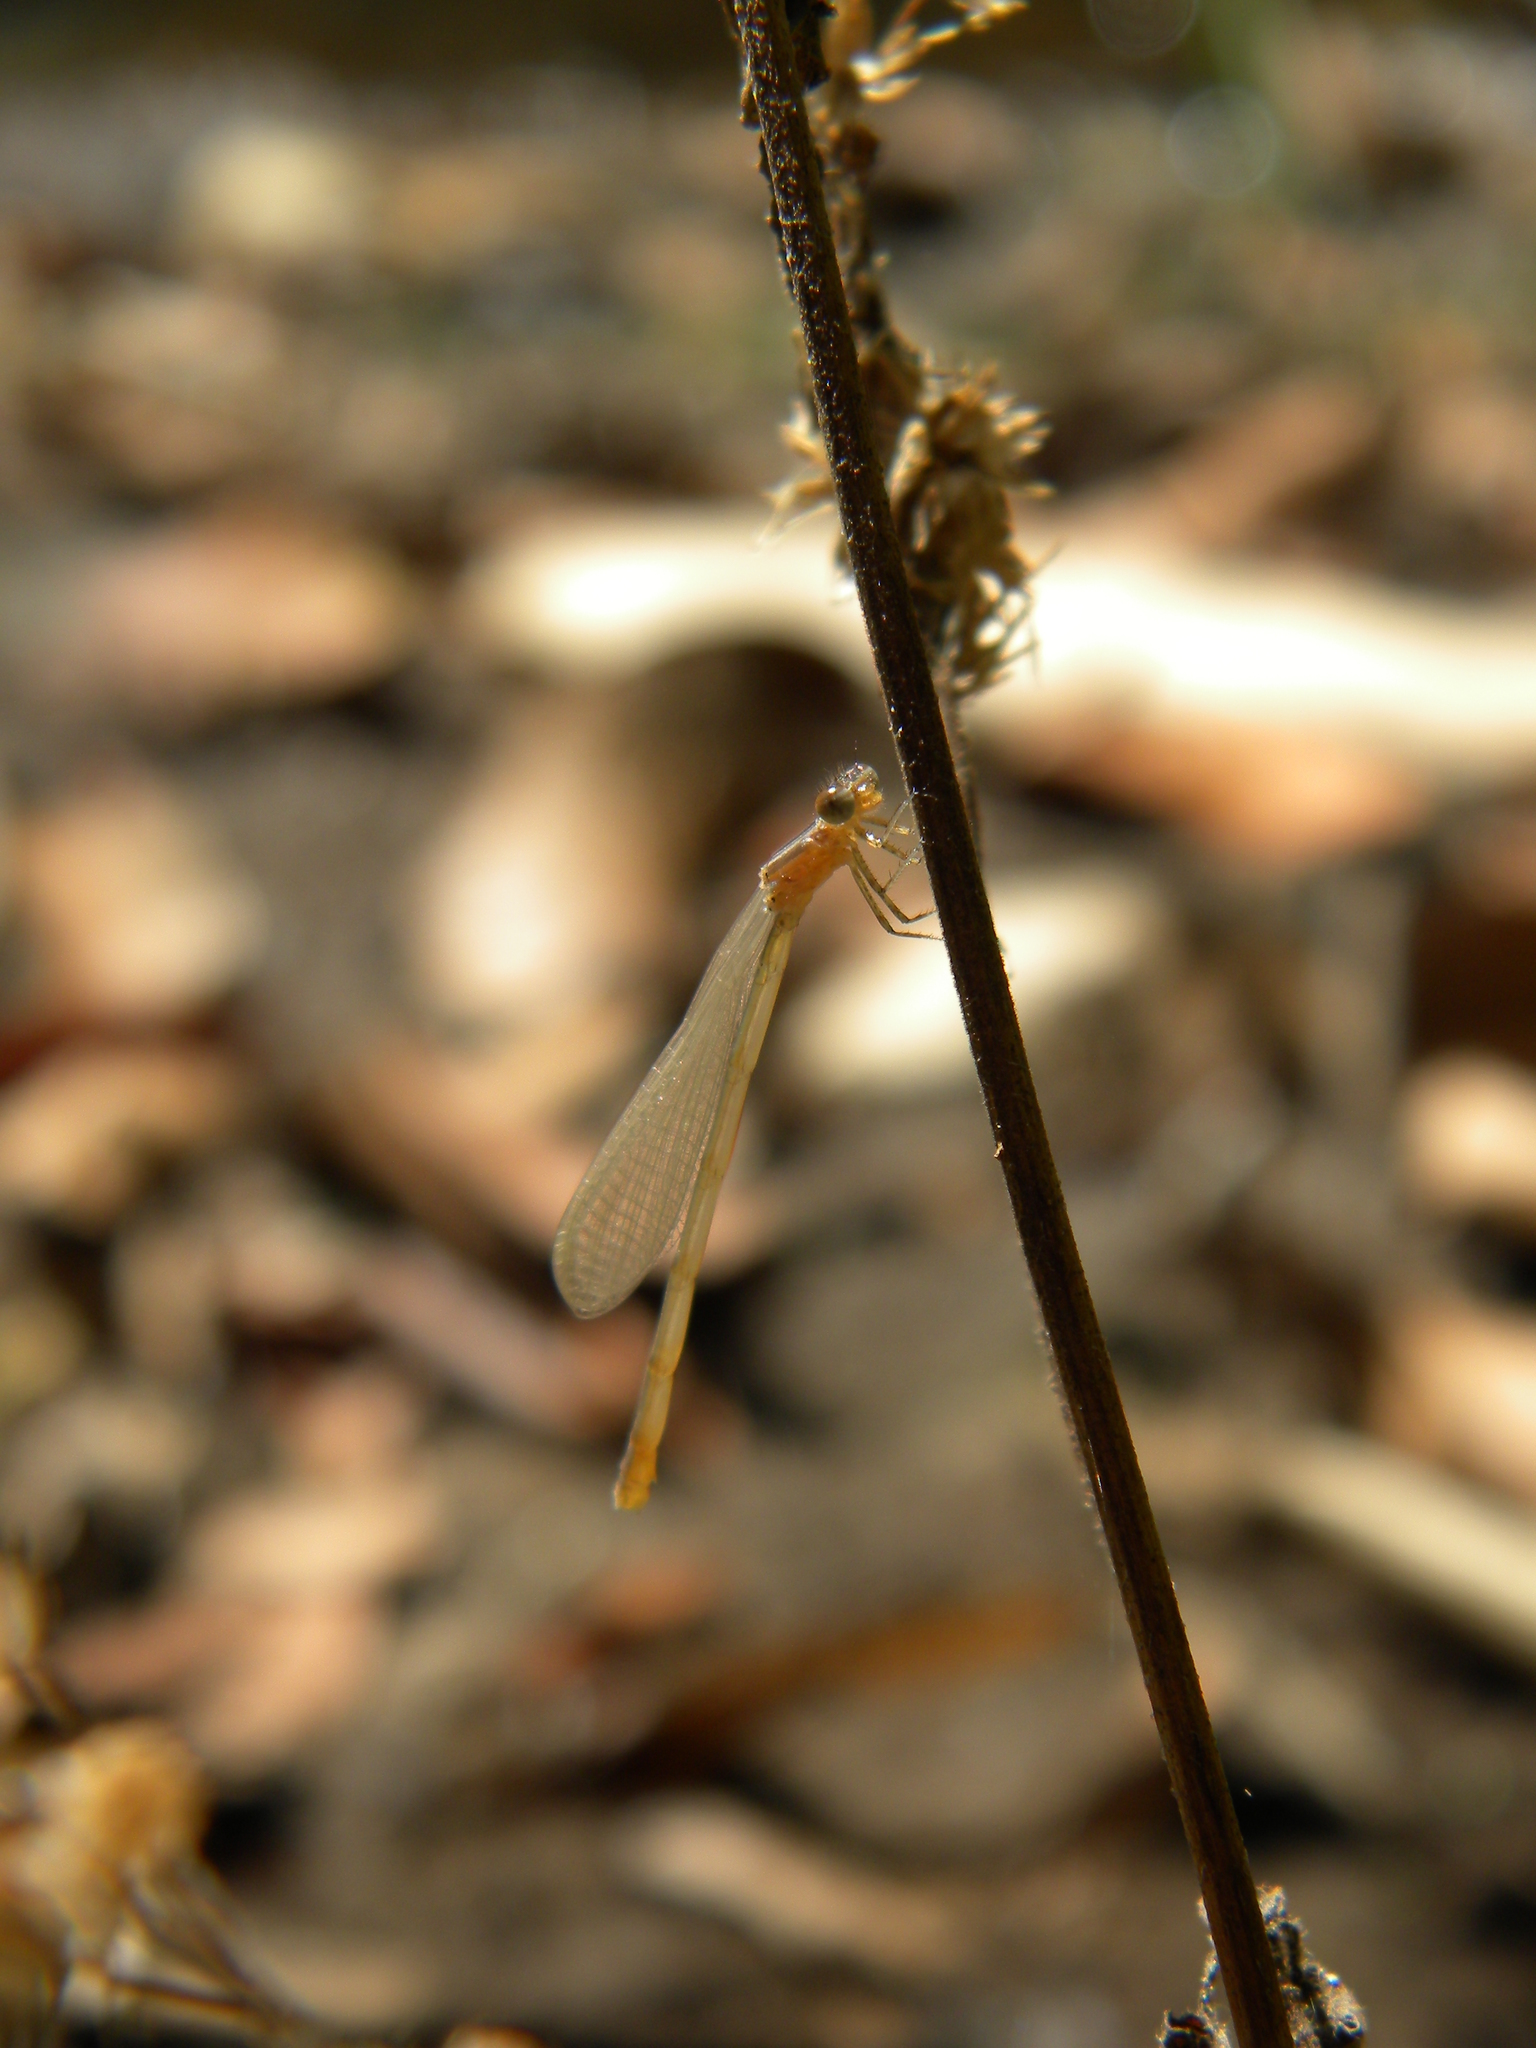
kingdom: Animalia
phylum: Arthropoda
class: Insecta
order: Odonata
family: Coenagrionidae
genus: Ischnura
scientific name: Ischnura senegalensis
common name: Tropical bluetail
